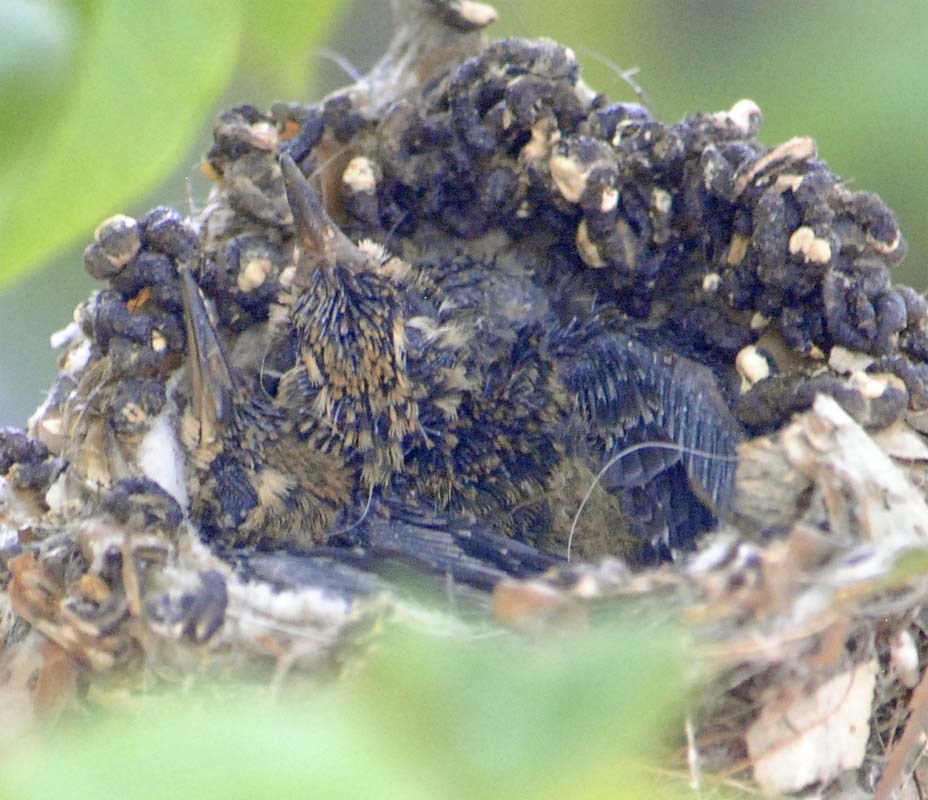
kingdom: Animalia
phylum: Chordata
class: Aves
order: Apodiformes
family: Trochilidae
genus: Cynanthus
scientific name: Cynanthus latirostris
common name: Broad-billed hummingbird
